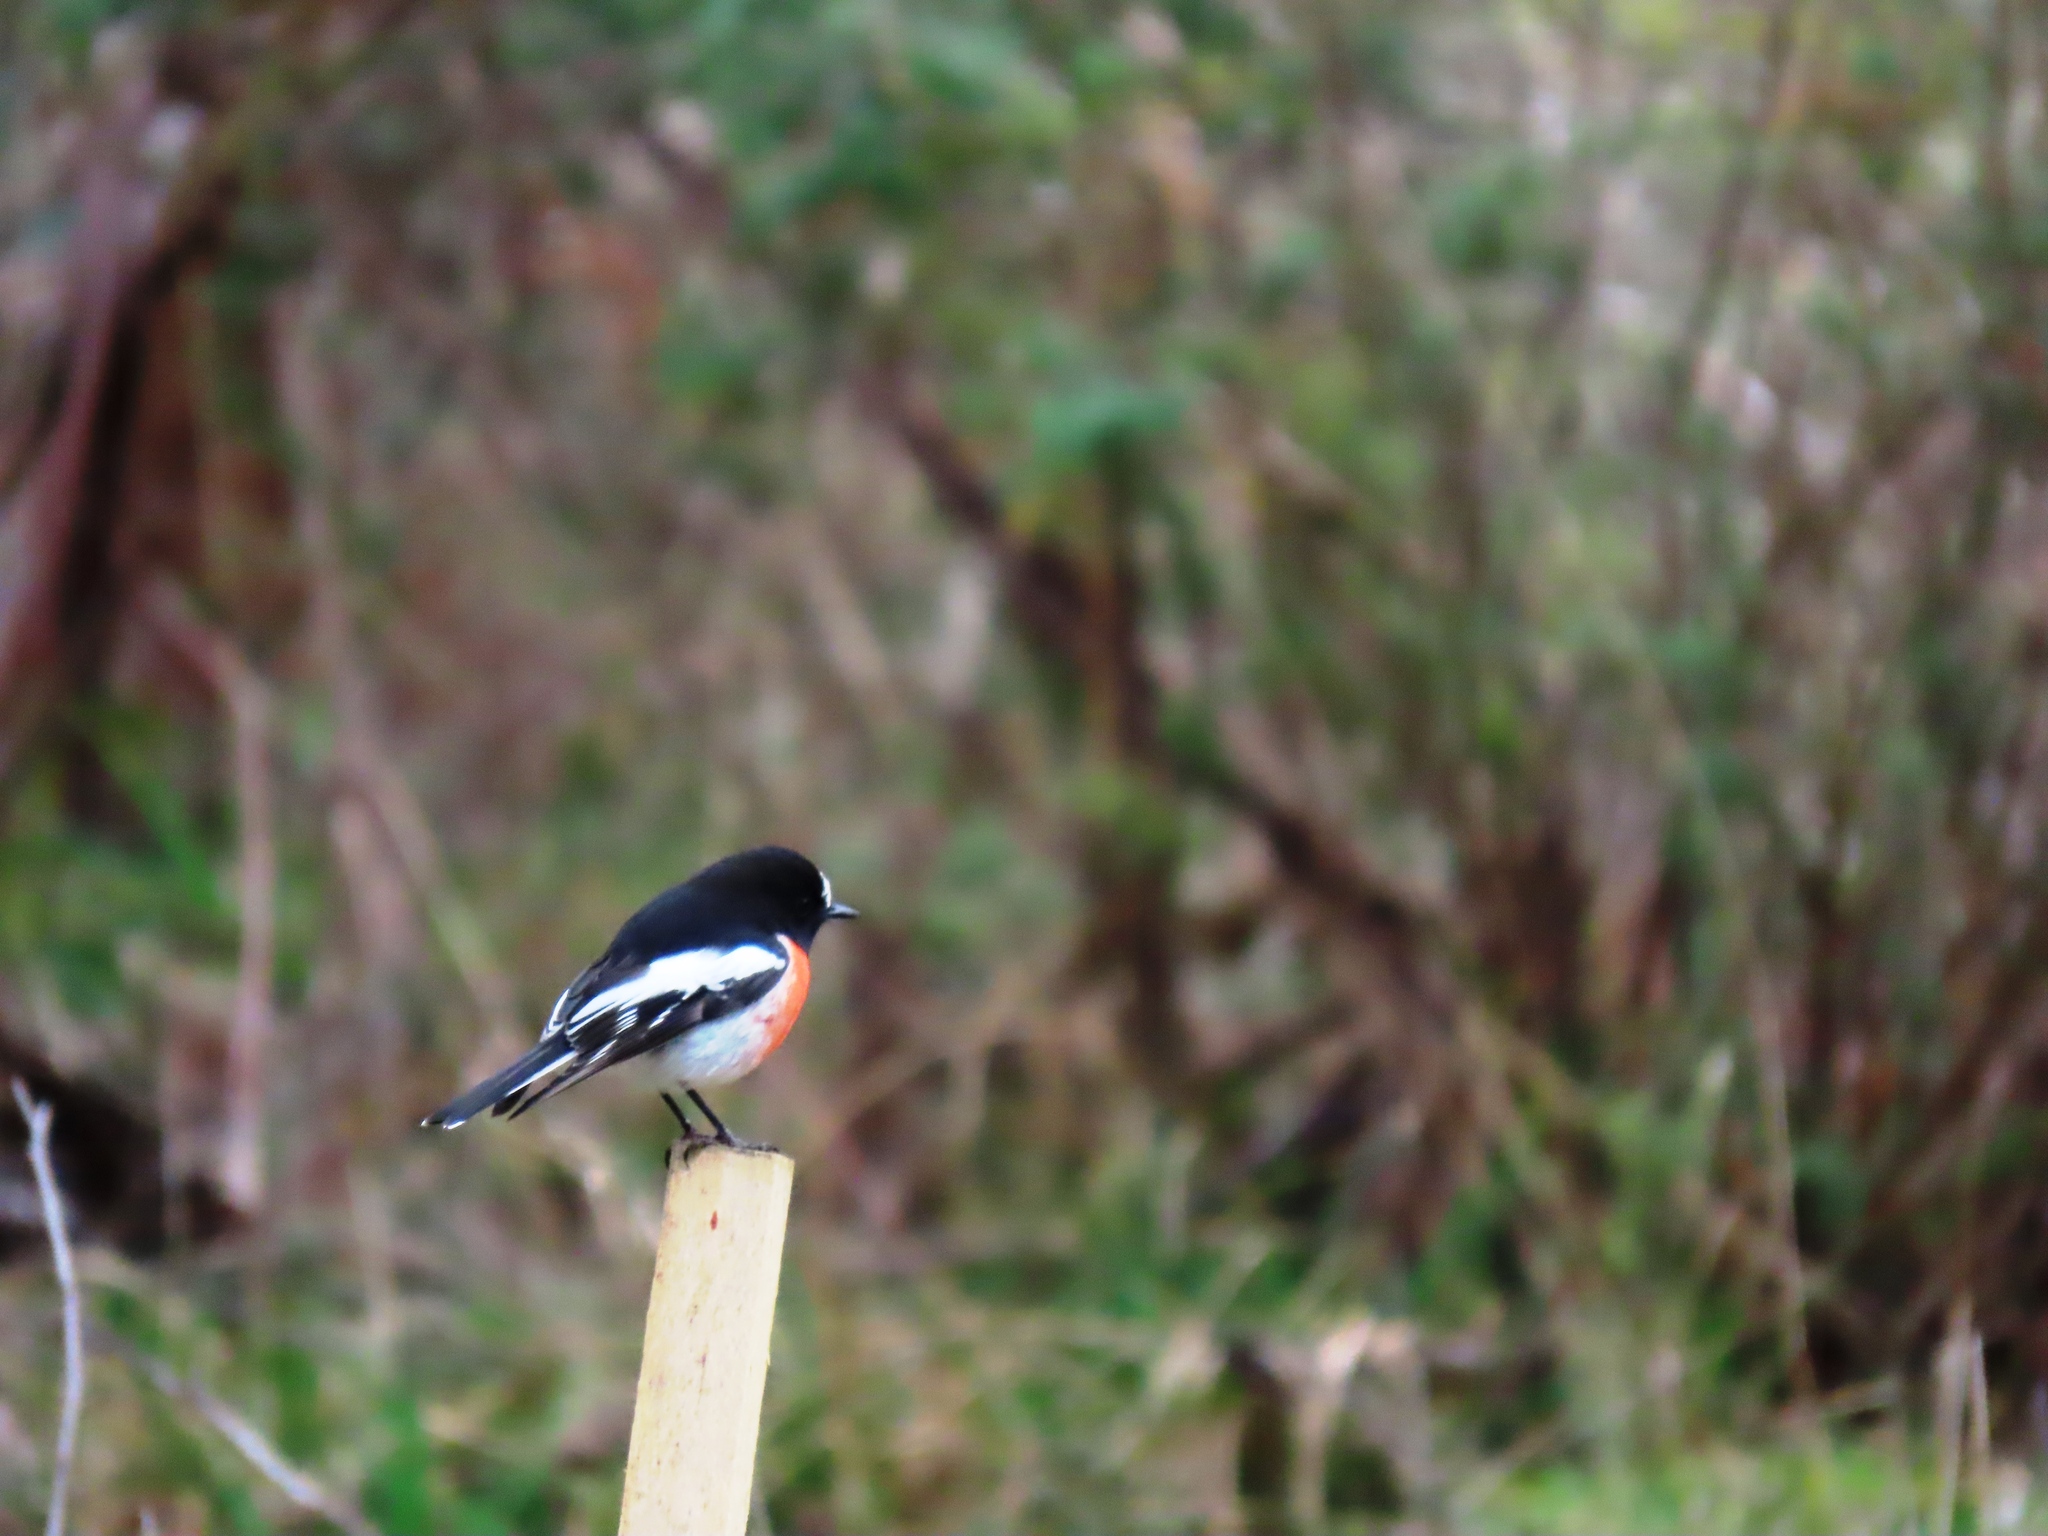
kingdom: Animalia
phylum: Chordata
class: Aves
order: Passeriformes
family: Petroicidae
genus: Petroica
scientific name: Petroica boodang
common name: Scarlet robin
